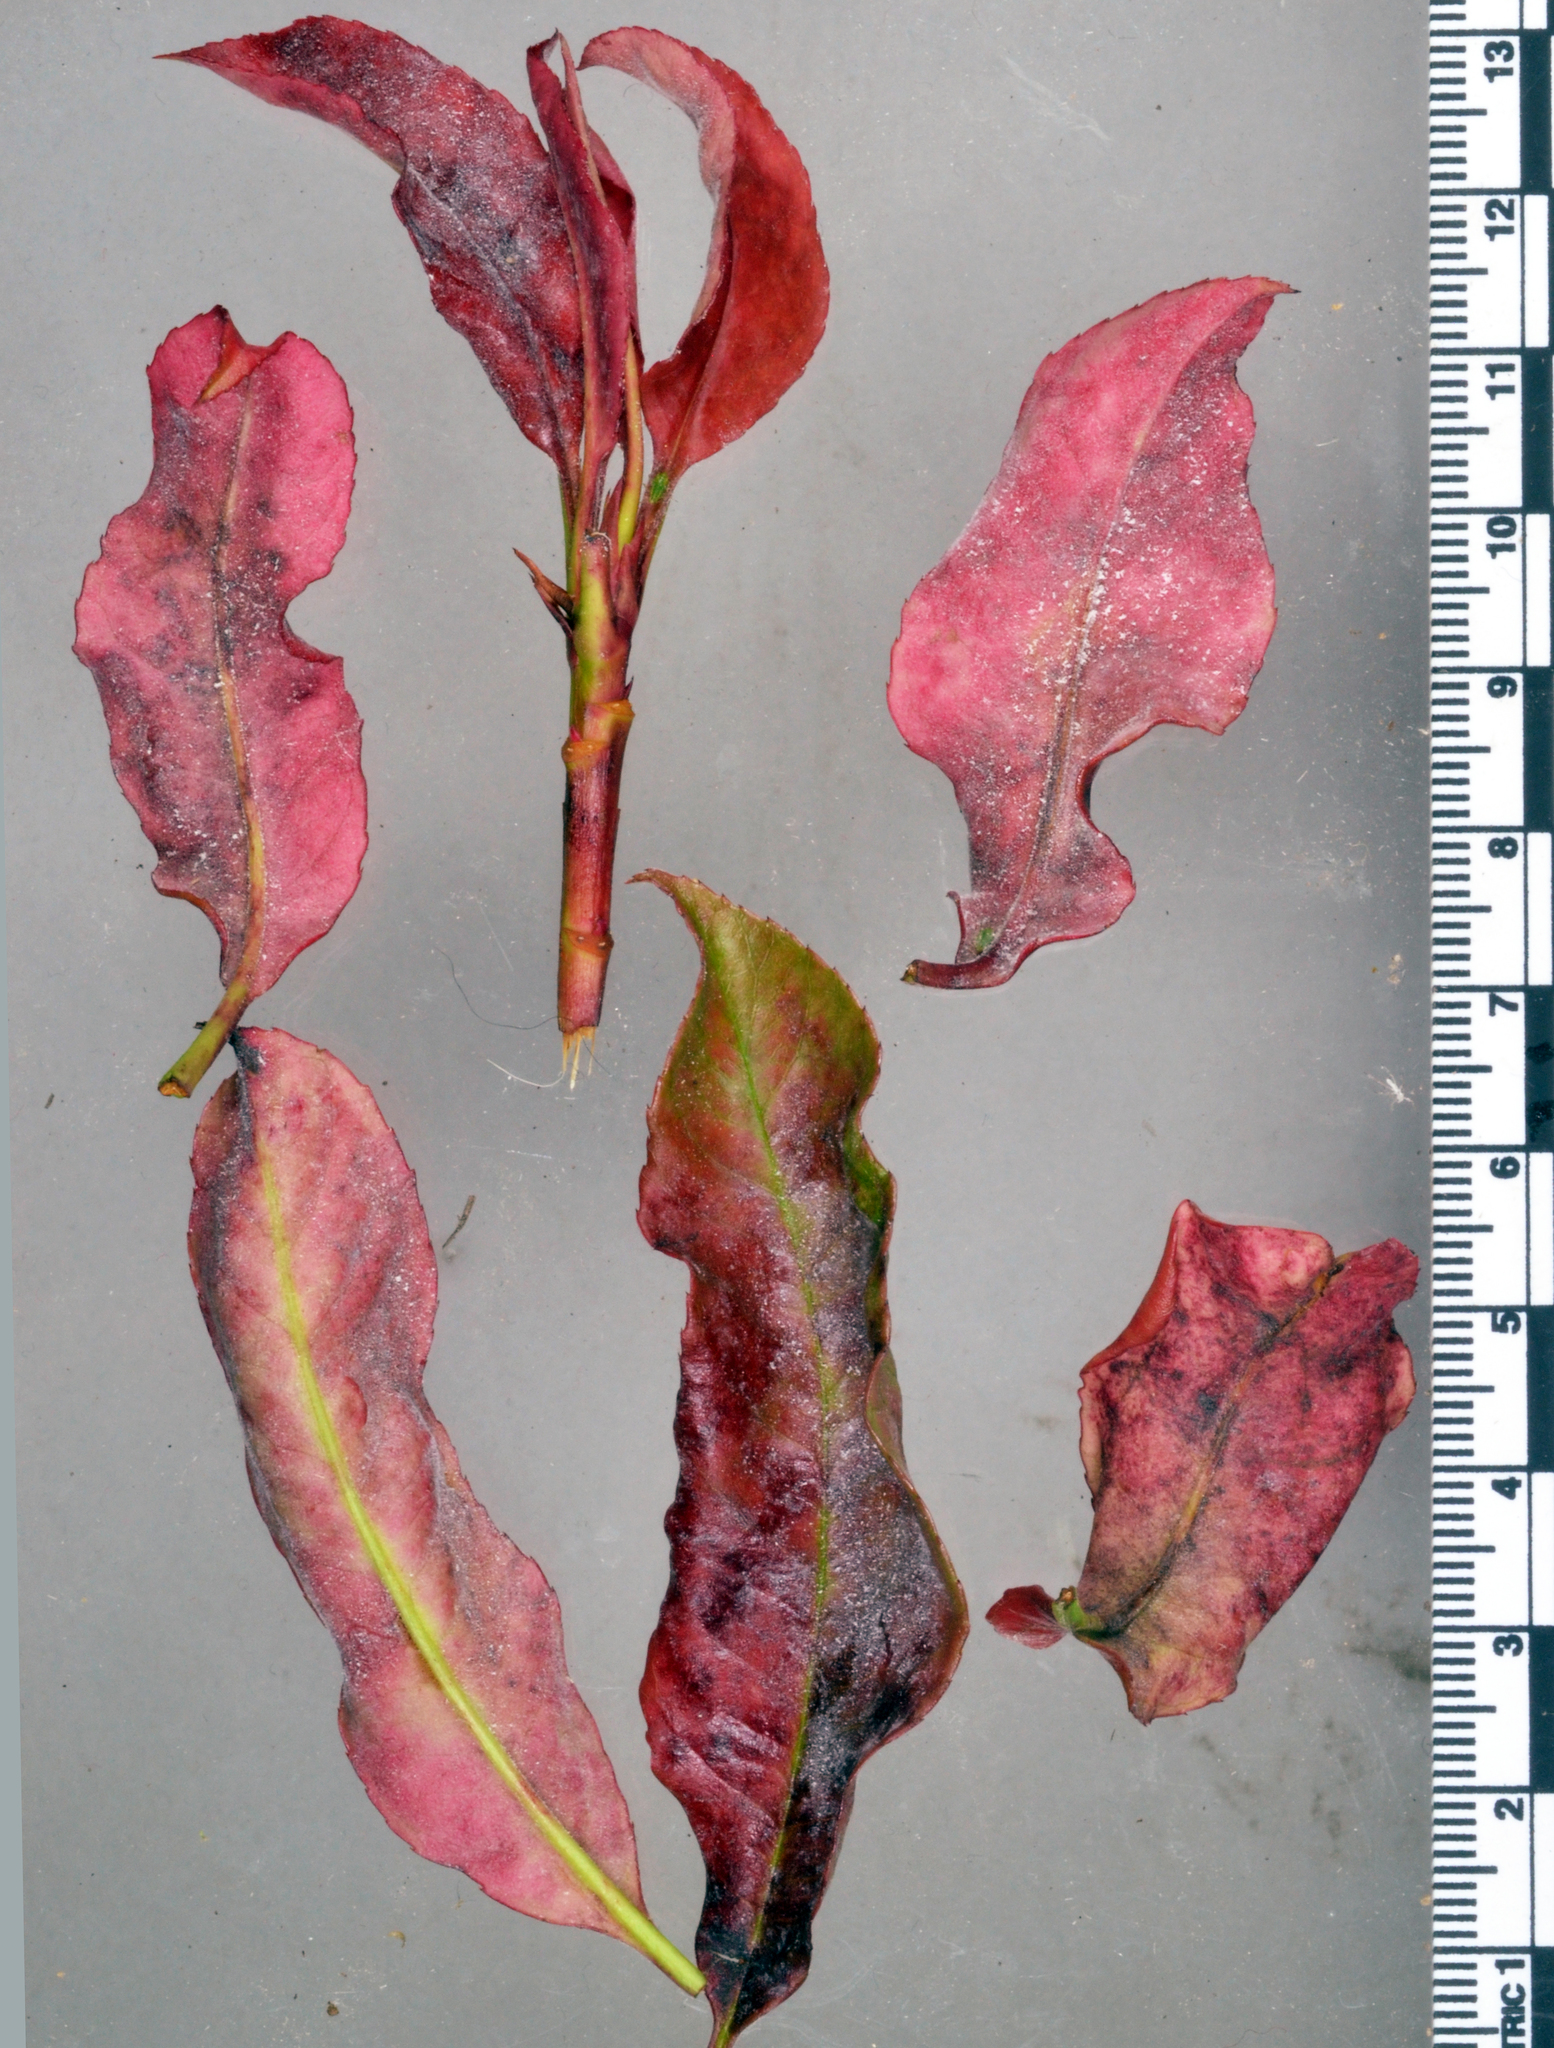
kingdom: Fungi
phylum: Ascomycota
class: Leotiomycetes
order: Helotiales
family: Erysiphaceae
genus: Podosphaera
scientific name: Podosphaera clandestina
